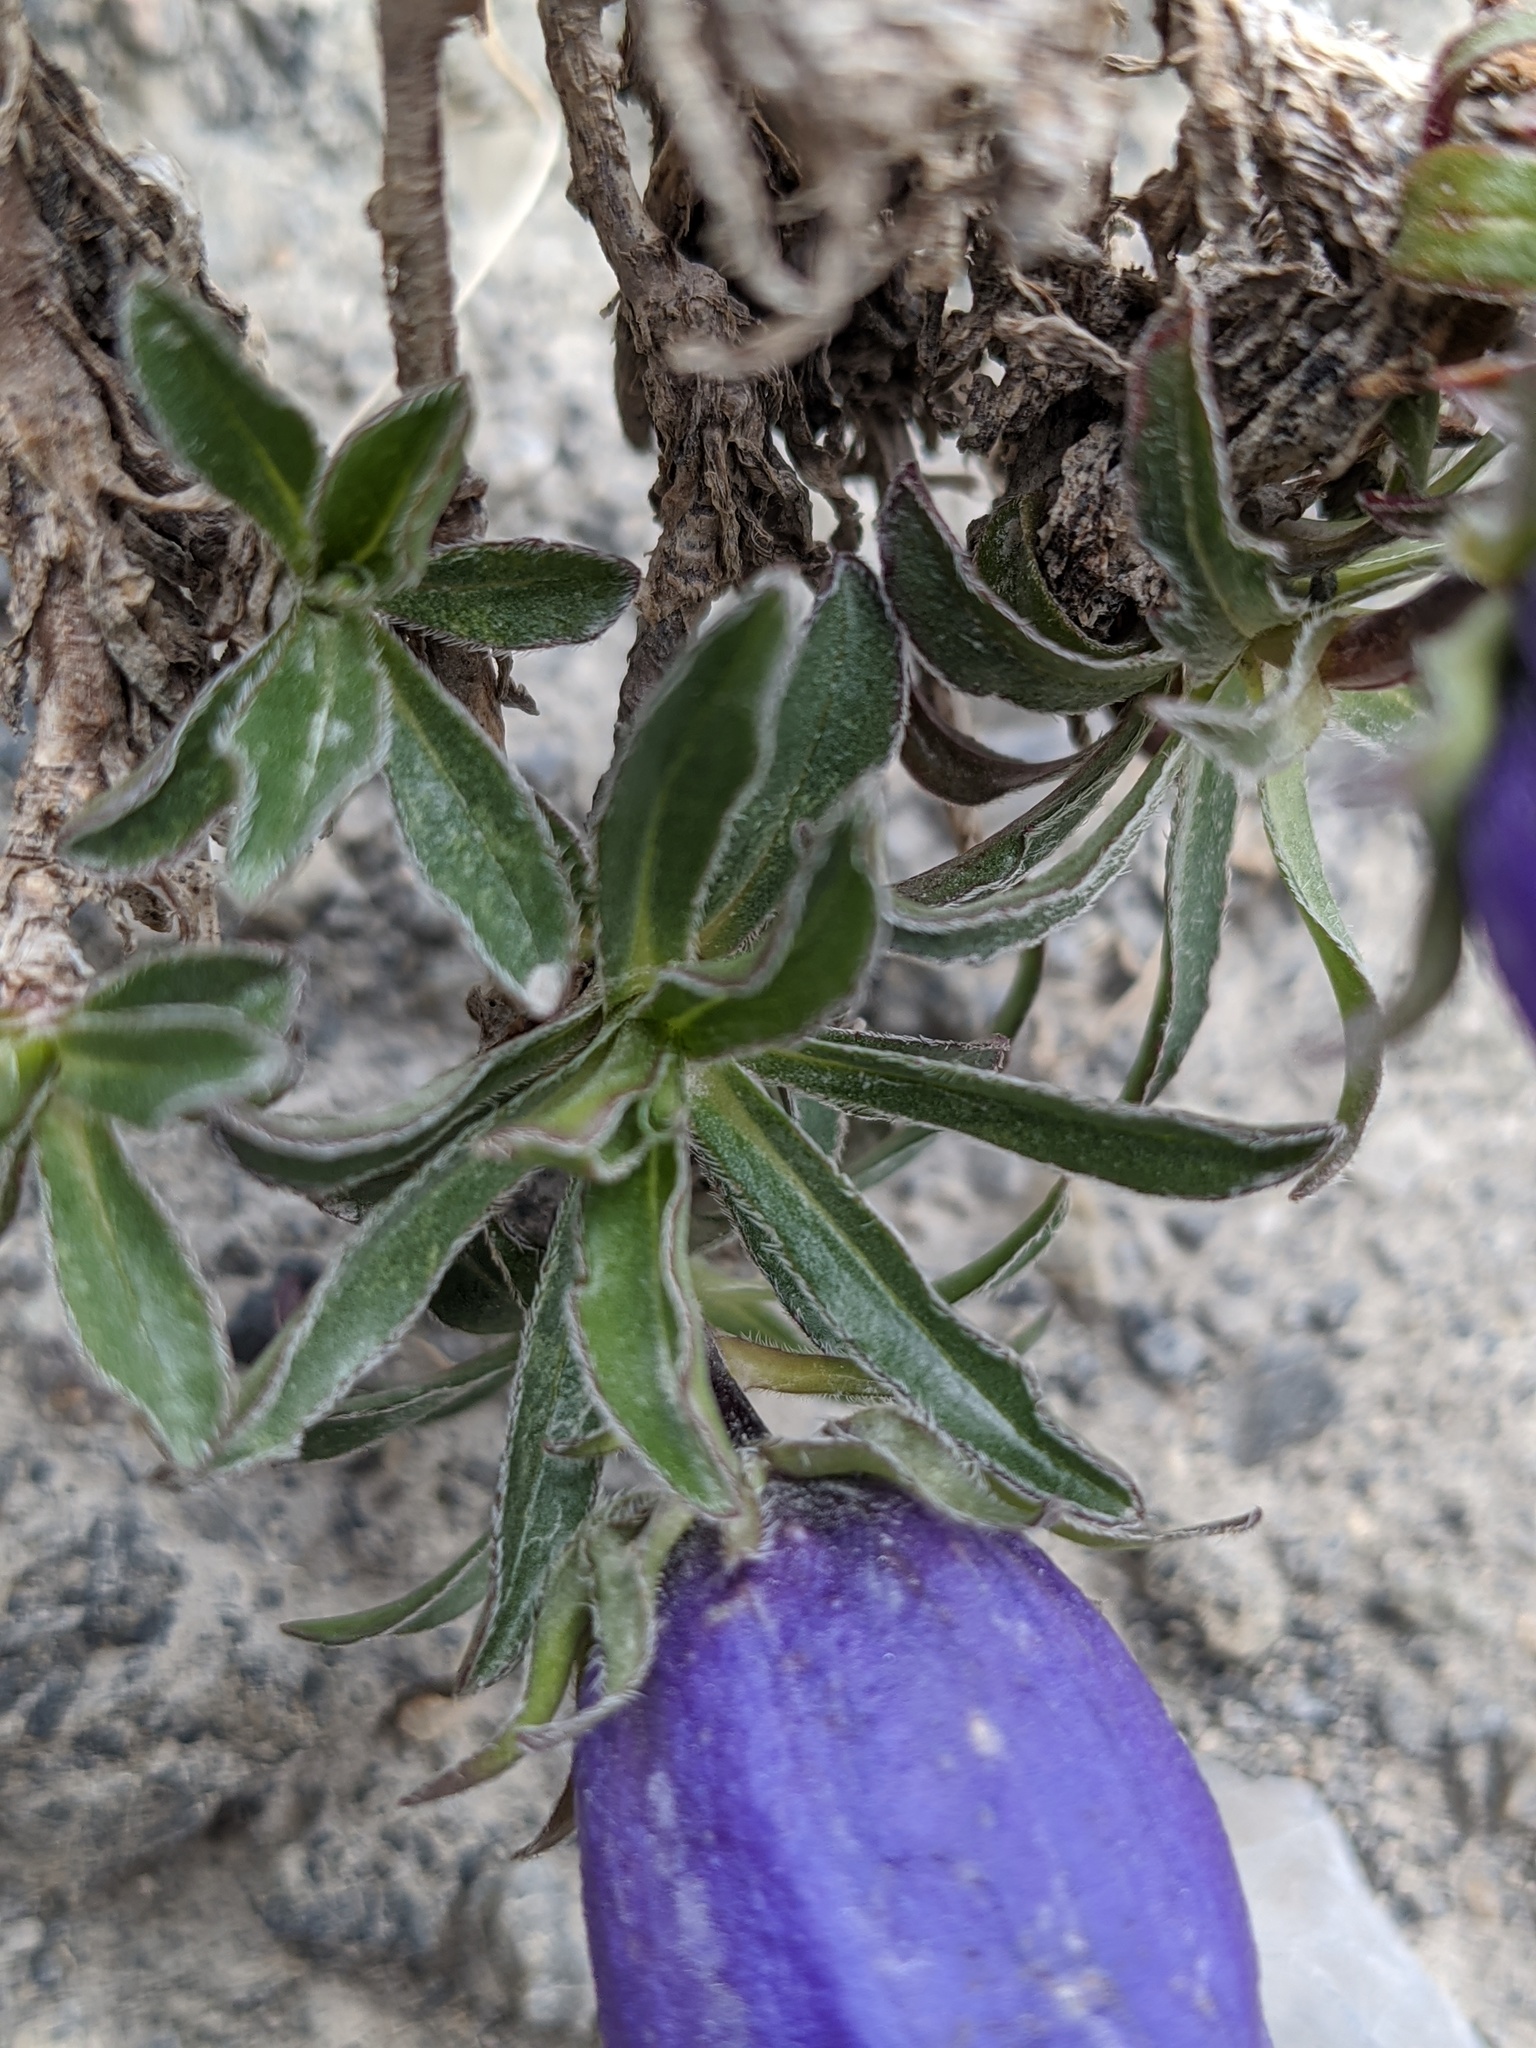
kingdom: Plantae
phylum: Tracheophyta
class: Magnoliopsida
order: Asterales
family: Campanulaceae
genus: Campanula
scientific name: Campanula alpestris
